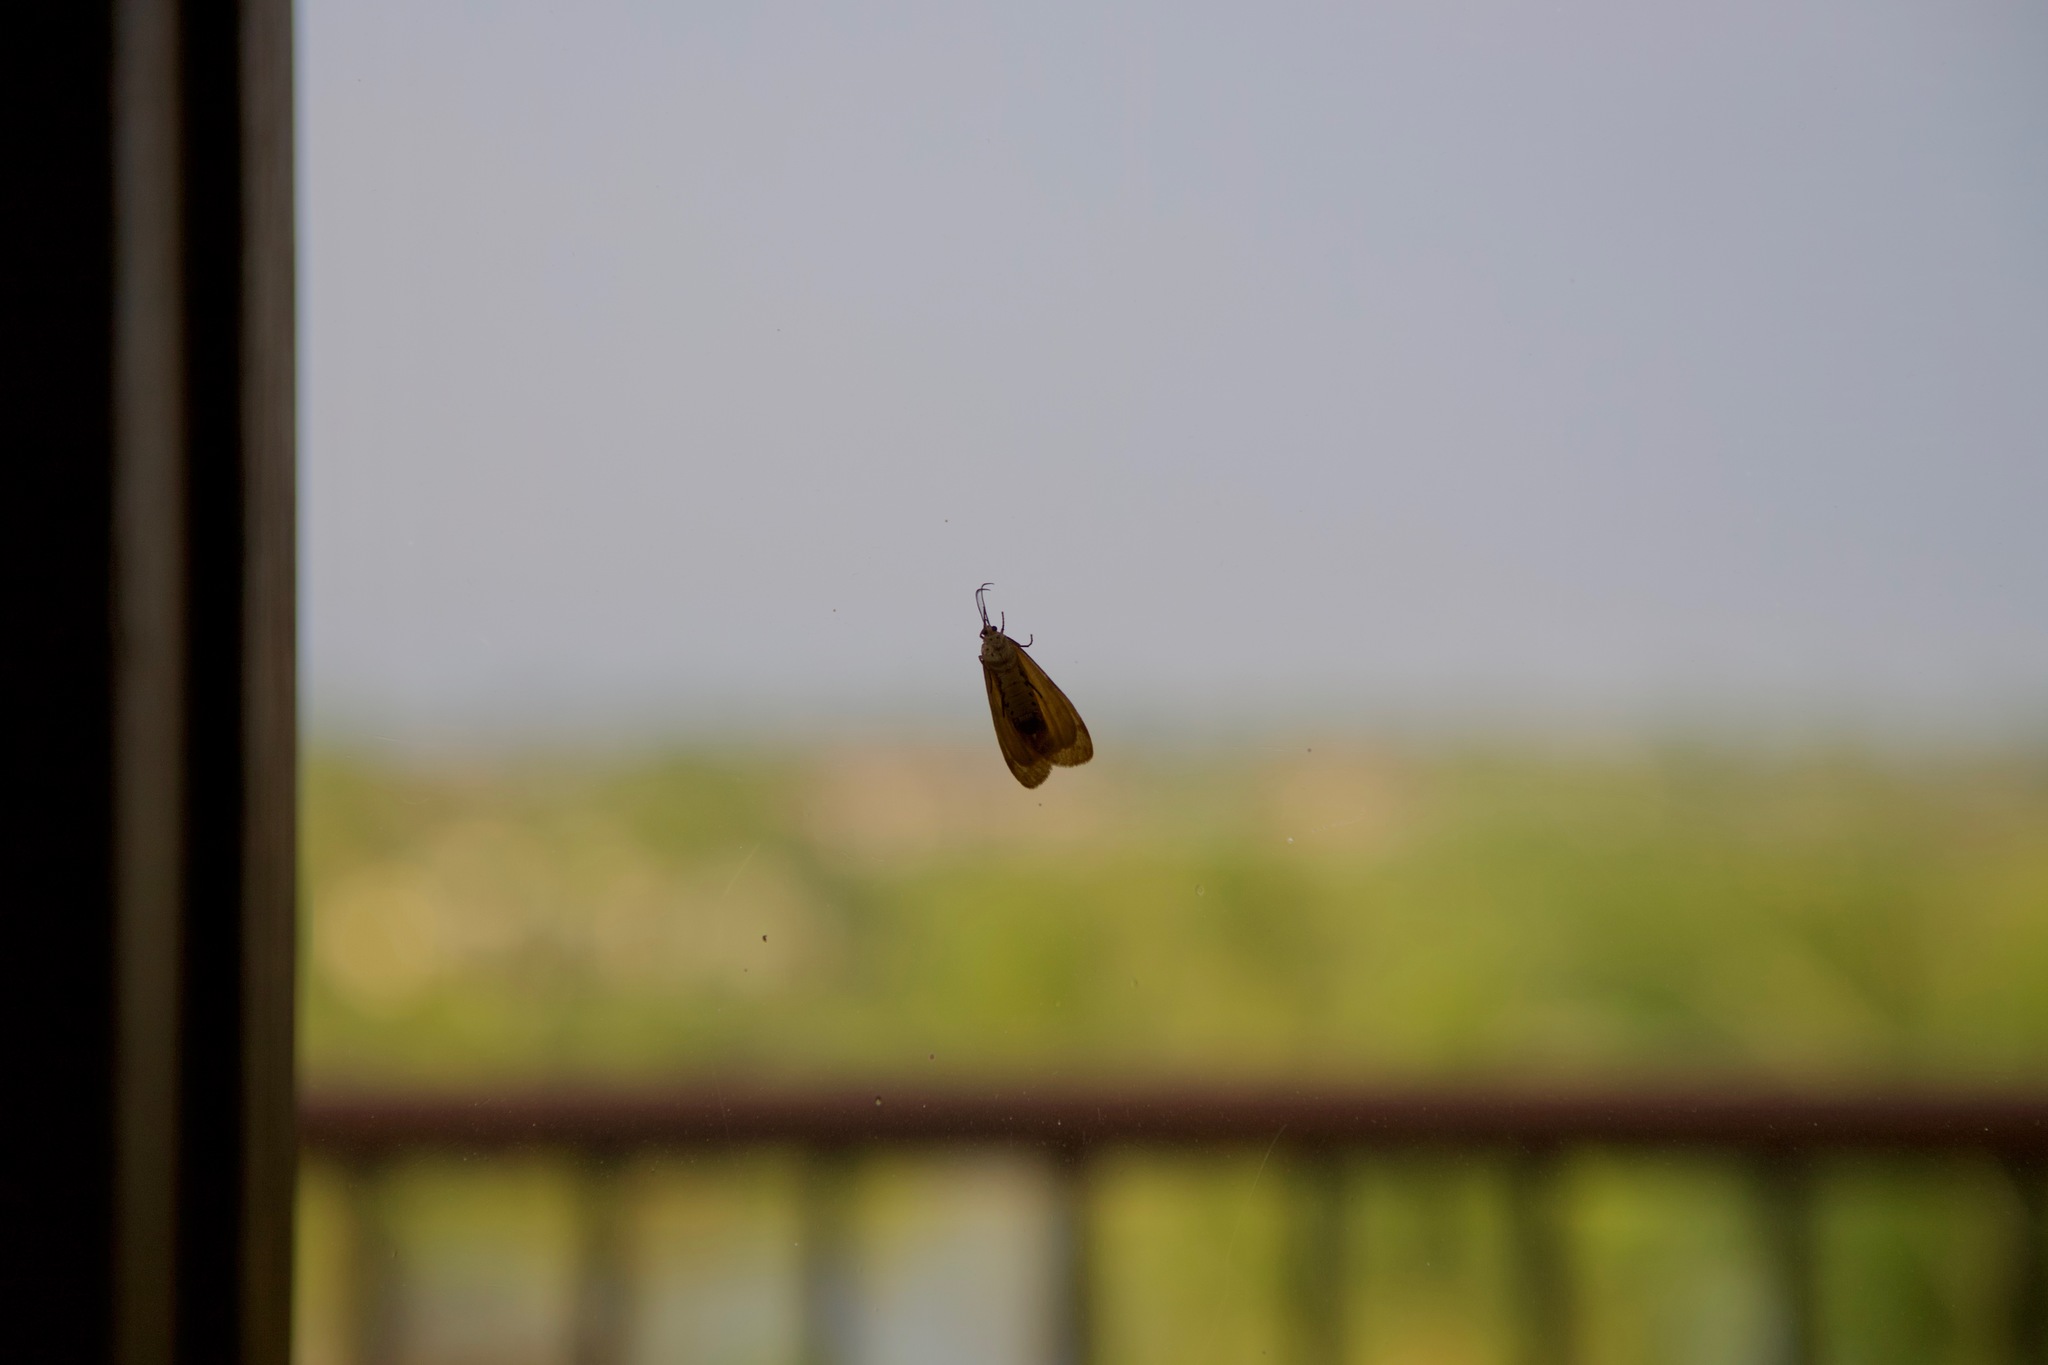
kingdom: Animalia
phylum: Arthropoda
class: Insecta
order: Lepidoptera
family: Erebidae
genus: Galtara
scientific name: Galtara extensa
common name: Madagascar moth
